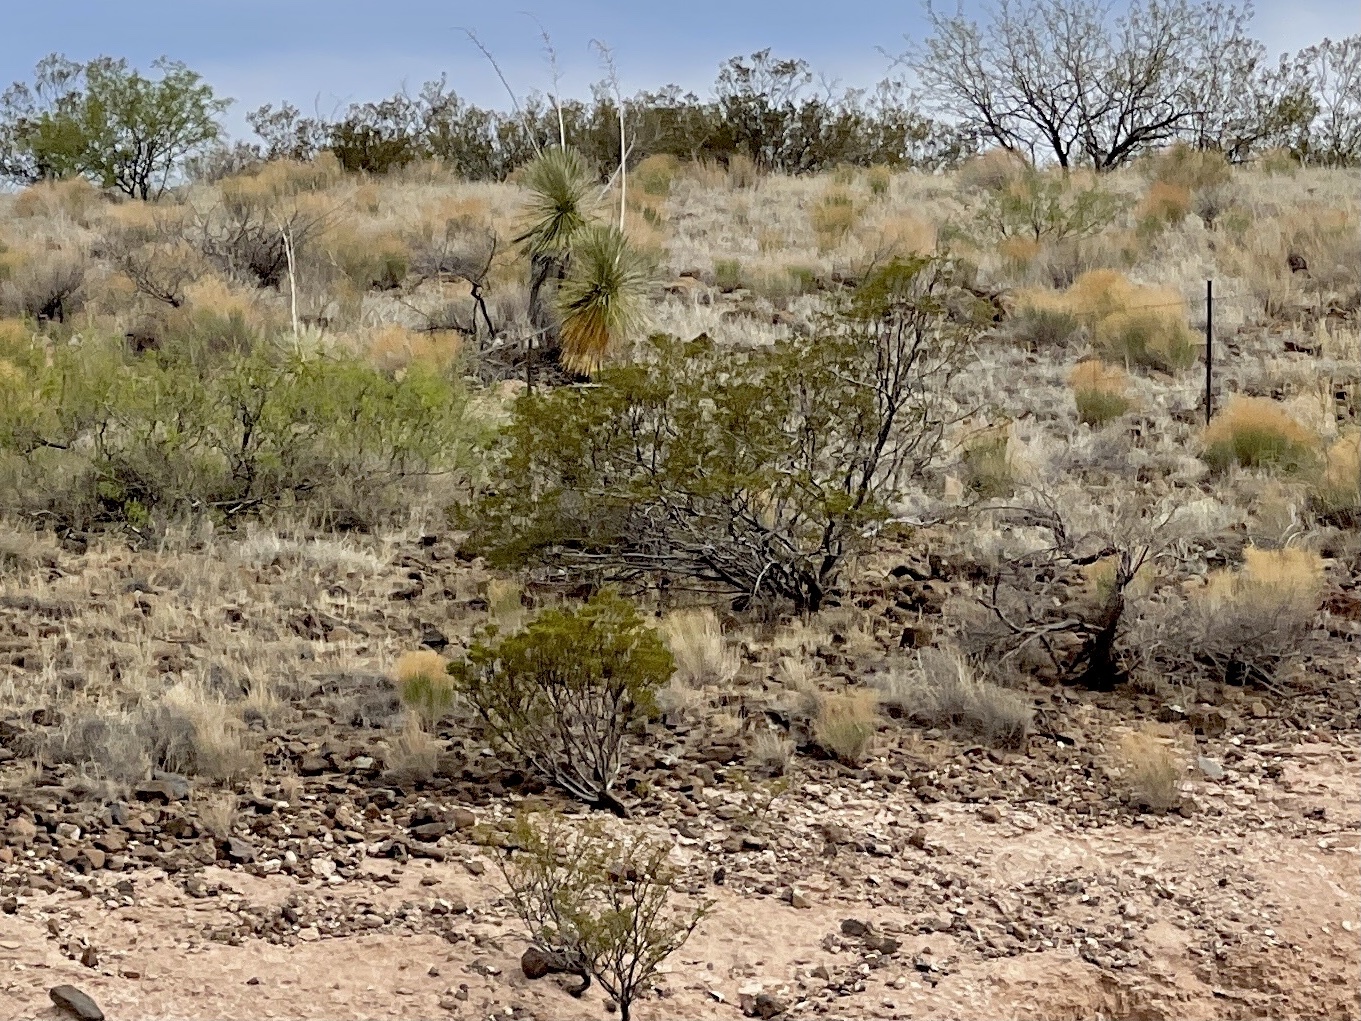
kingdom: Plantae
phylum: Tracheophyta
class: Magnoliopsida
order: Zygophyllales
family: Zygophyllaceae
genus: Larrea
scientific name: Larrea tridentata
